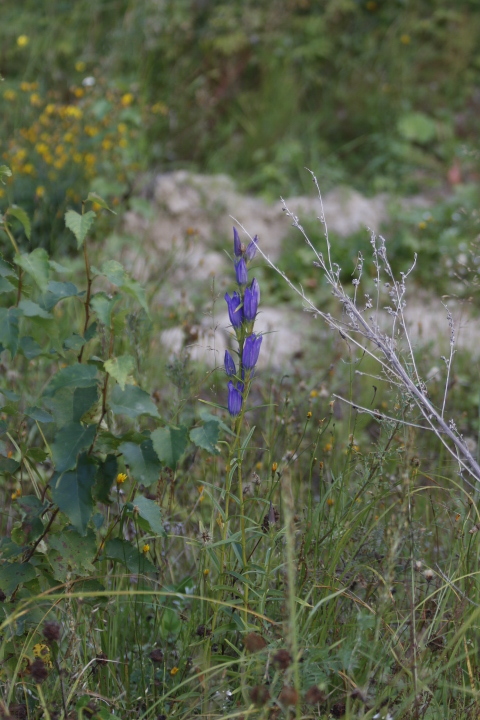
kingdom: Plantae
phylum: Tracheophyta
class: Magnoliopsida
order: Gentianales
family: Gentianaceae
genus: Gentiana
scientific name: Gentiana pneumonanthe
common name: Marsh gentian
